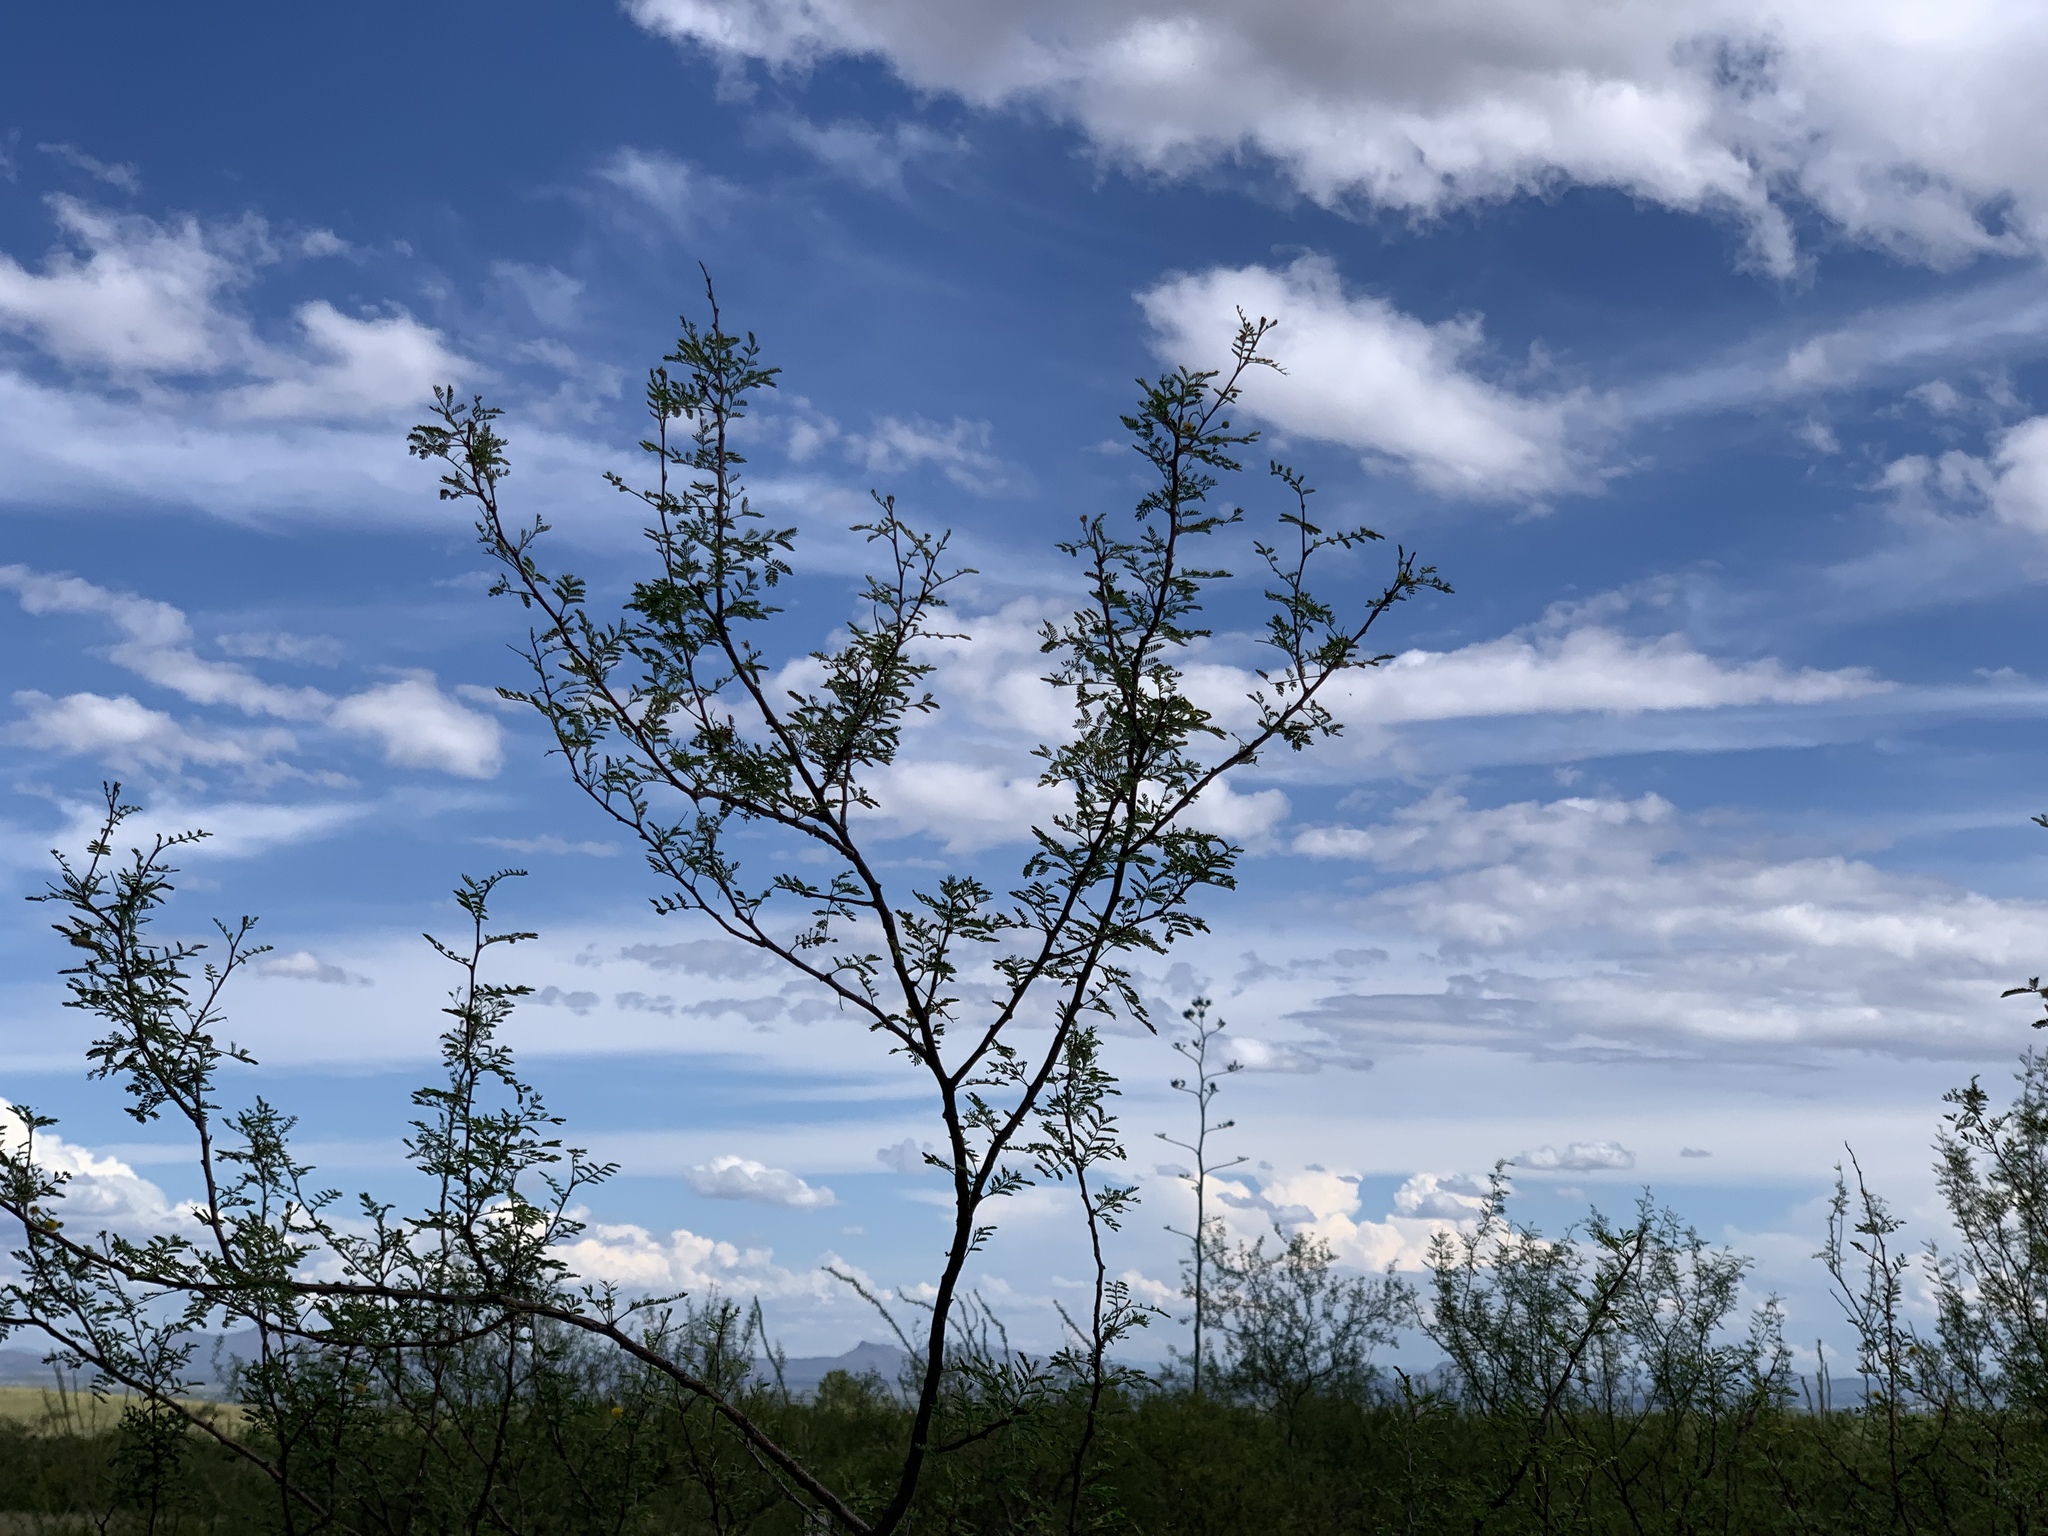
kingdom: Plantae
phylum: Tracheophyta
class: Magnoliopsida
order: Fabales
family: Fabaceae
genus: Vachellia
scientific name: Vachellia constricta
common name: Mescat acacia
